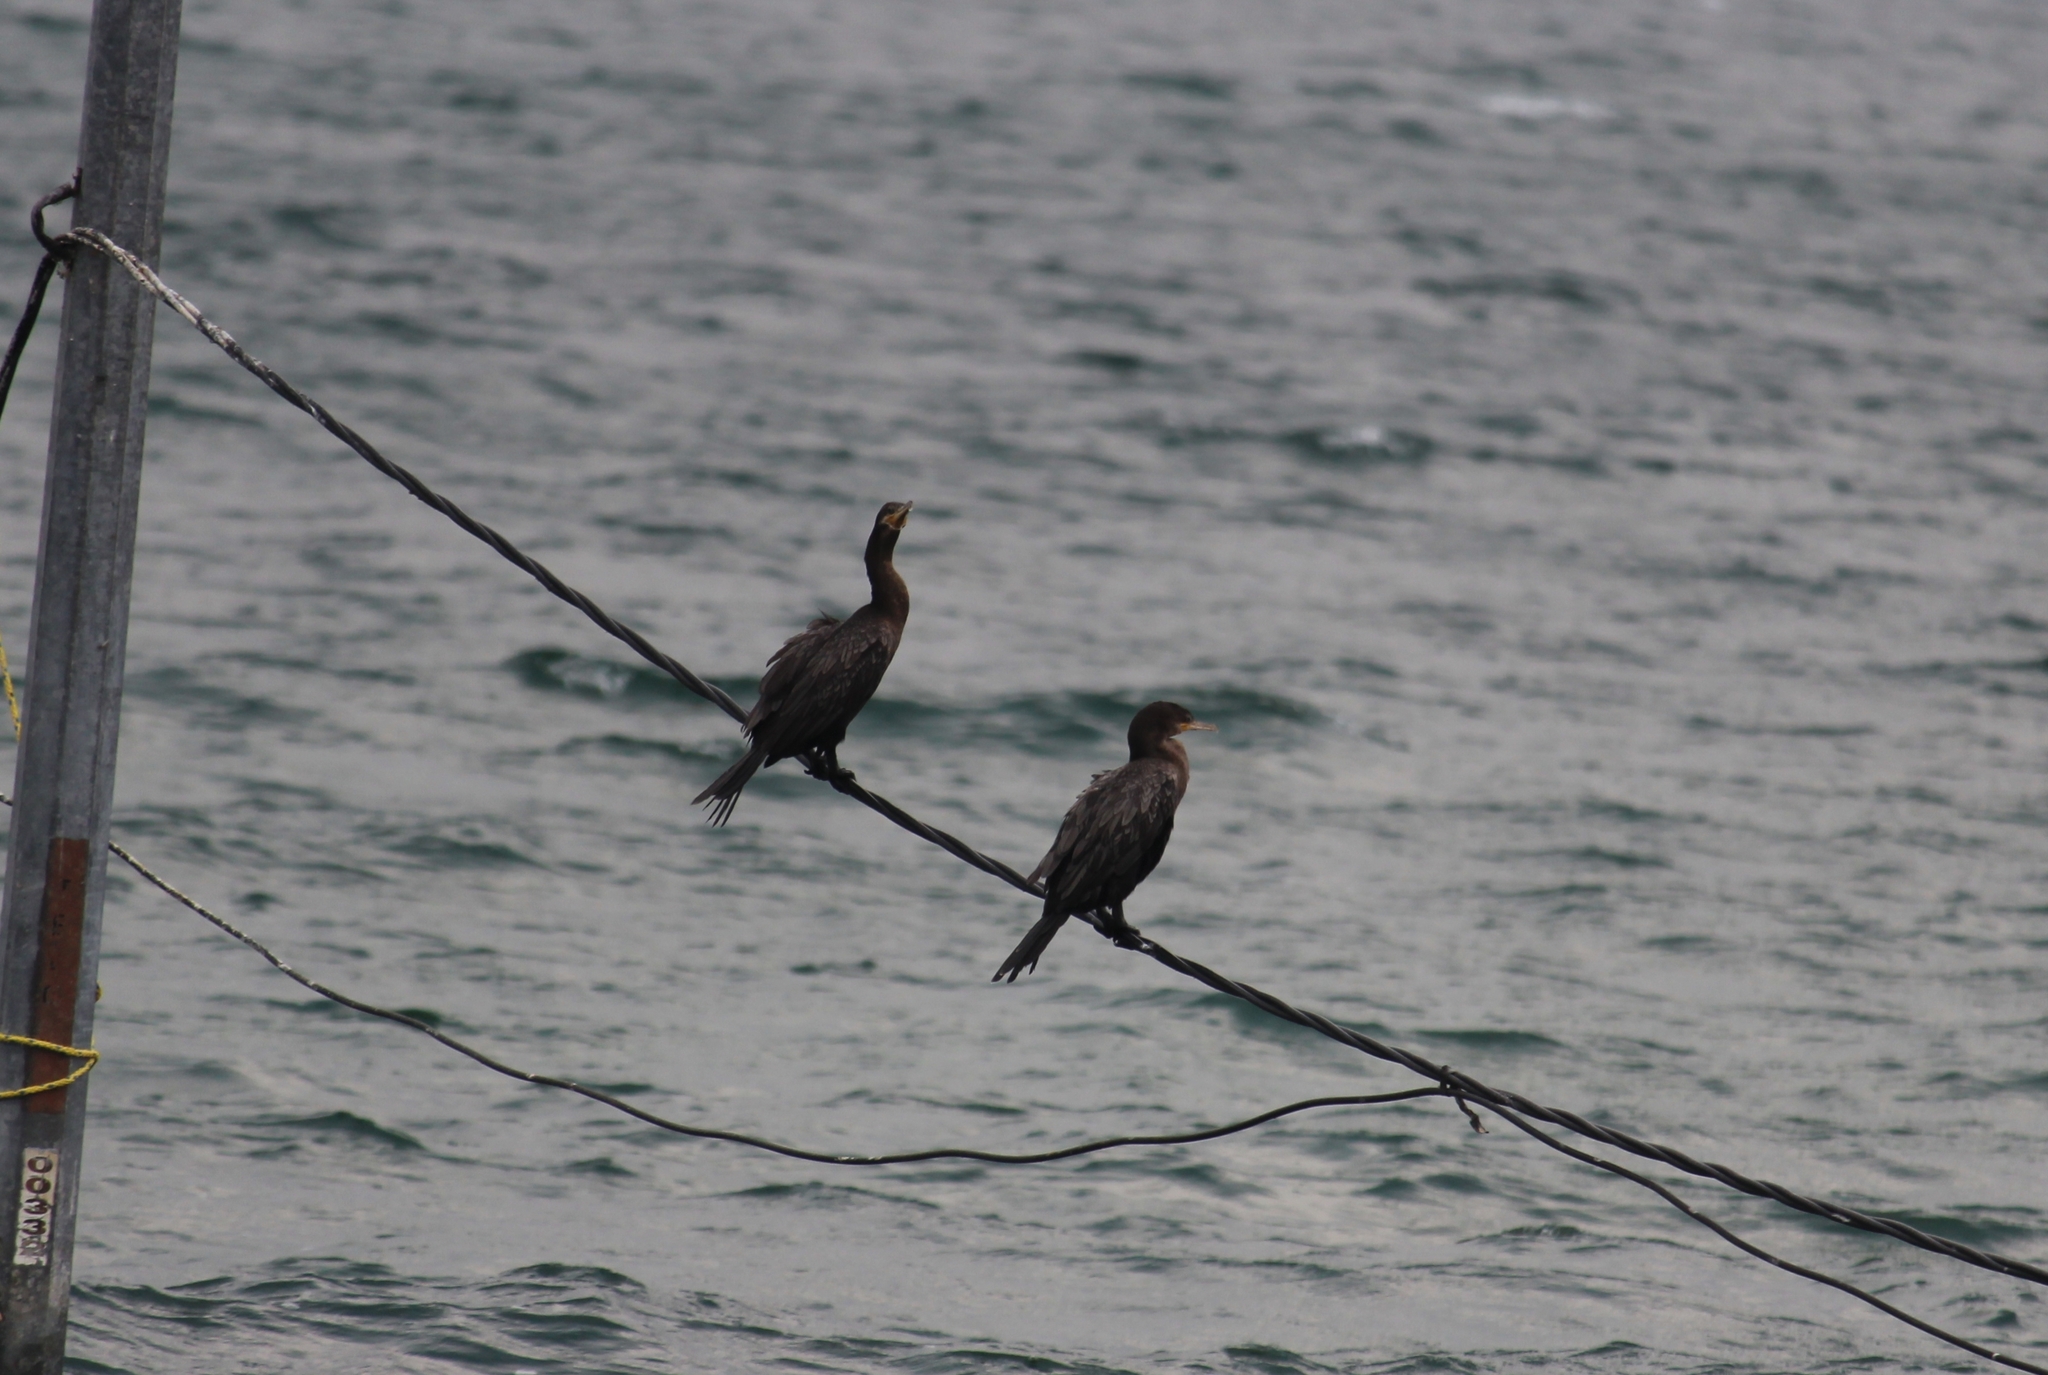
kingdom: Animalia
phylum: Chordata
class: Aves
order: Suliformes
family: Phalacrocoracidae
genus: Phalacrocorax
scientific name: Phalacrocorax brasilianus
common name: Neotropic cormorant
